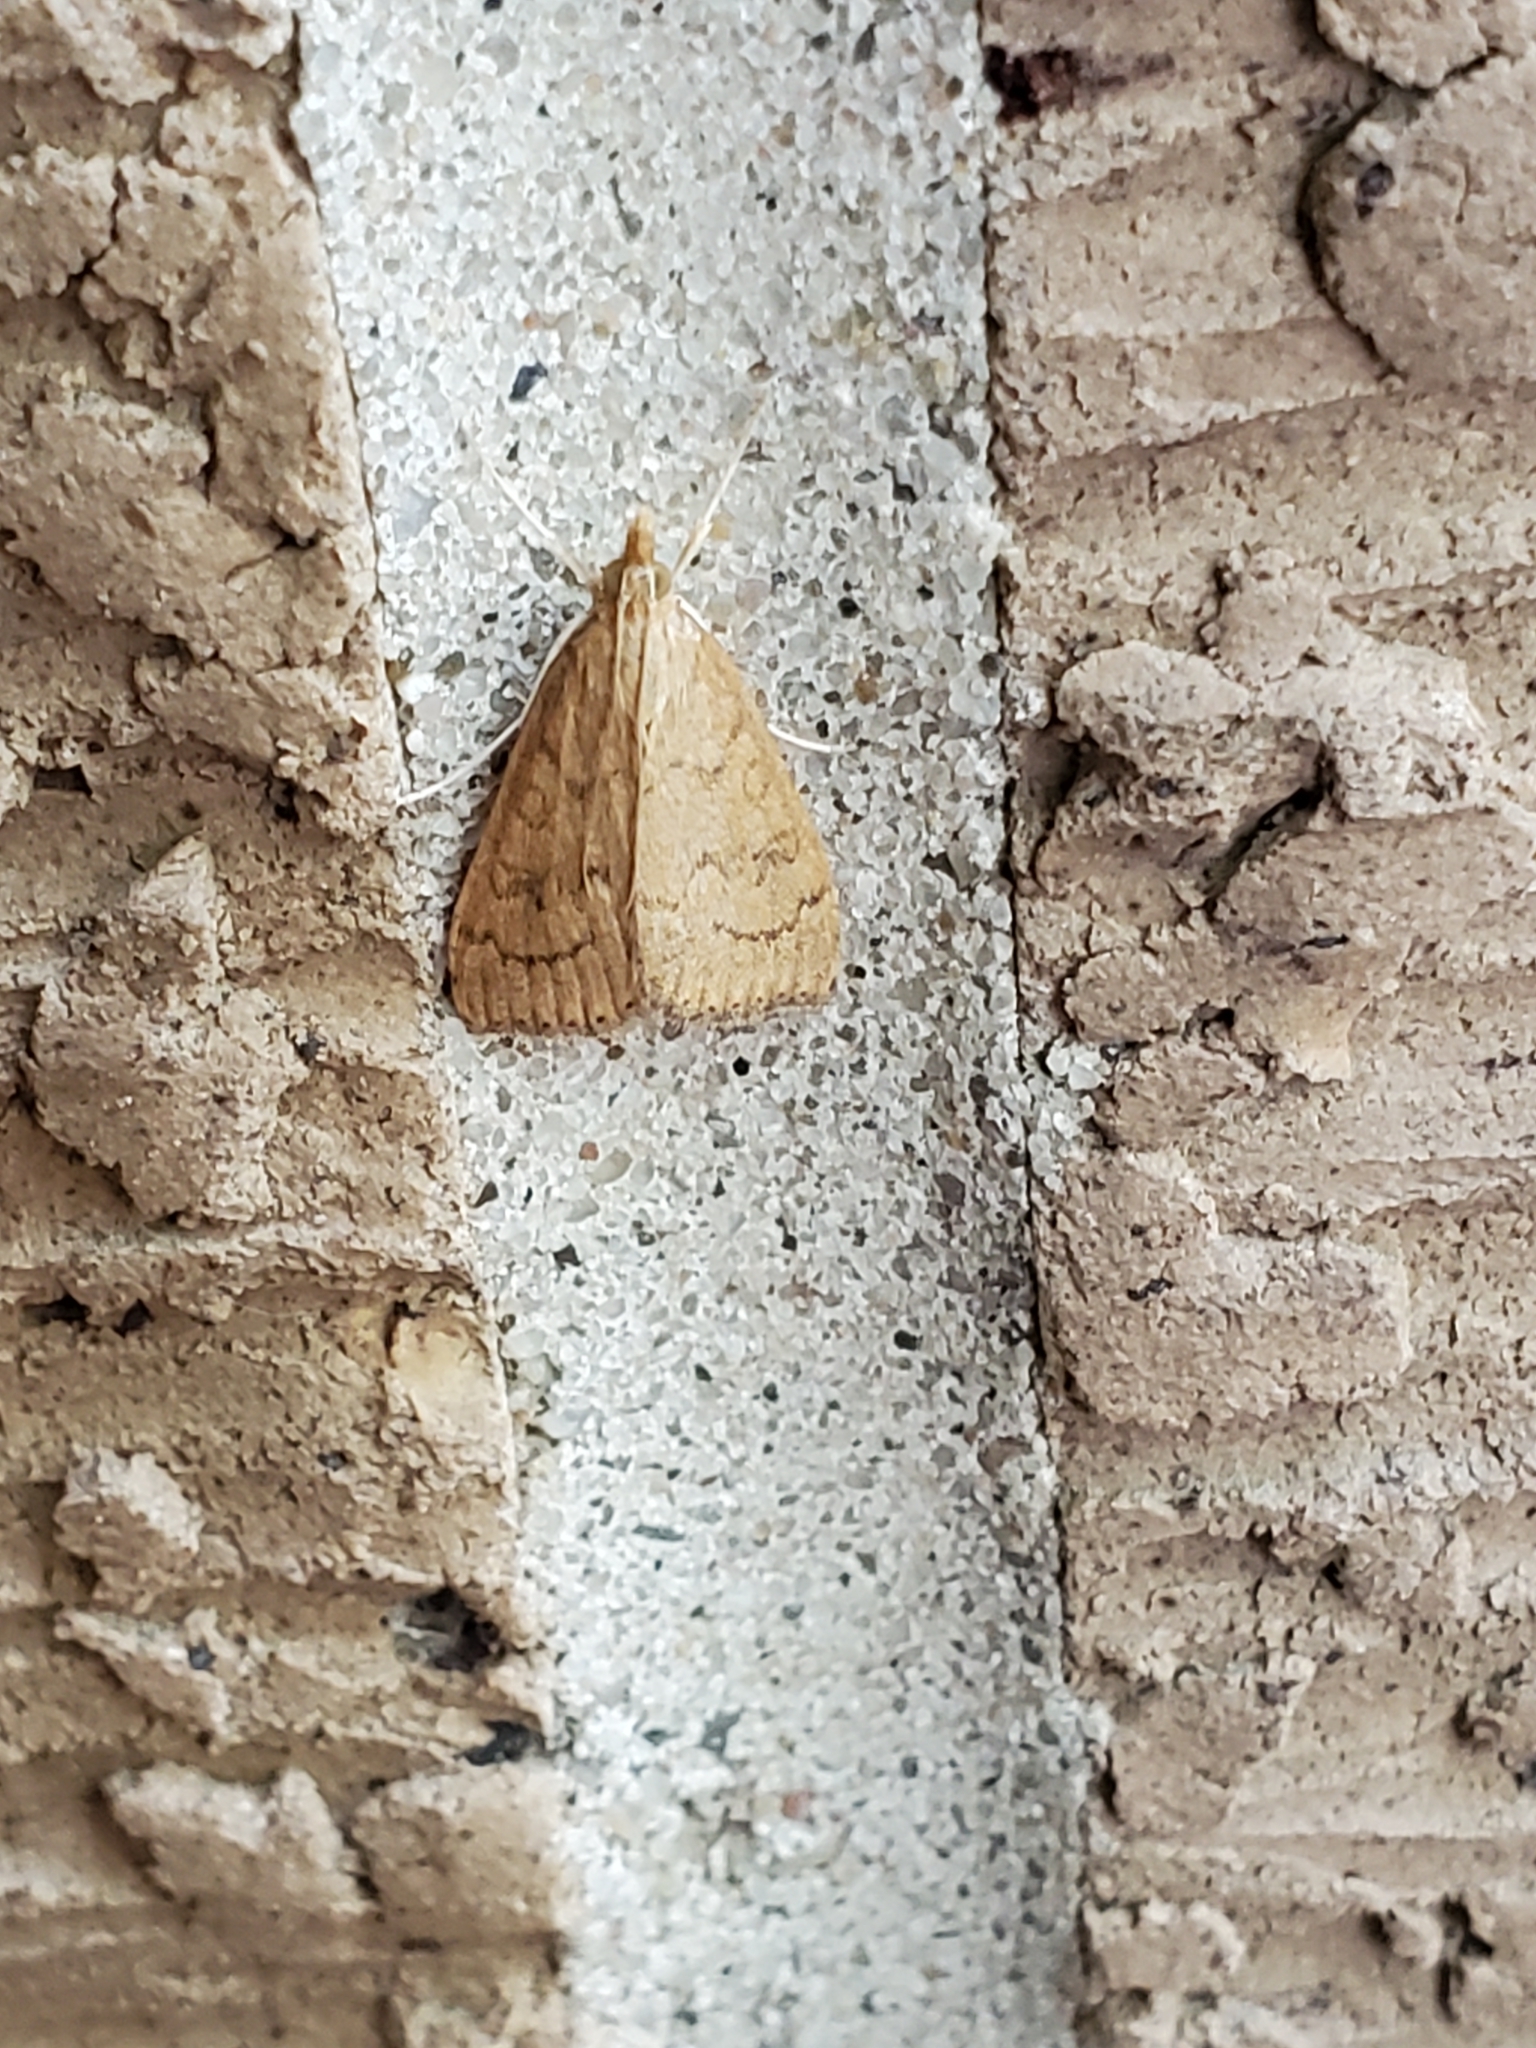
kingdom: Animalia
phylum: Arthropoda
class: Insecta
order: Lepidoptera
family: Crambidae
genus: Udea
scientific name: Udea rubigalis
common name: Celery leaftier moth
